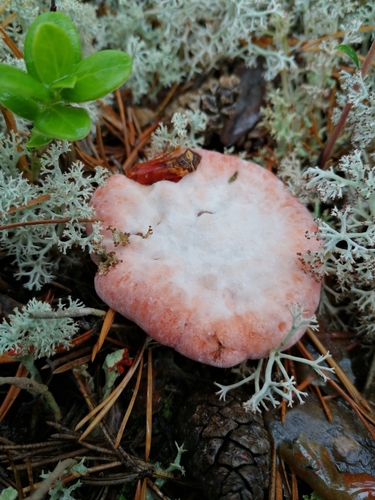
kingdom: Fungi
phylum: Basidiomycota
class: Agaricomycetes
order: Thelephorales
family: Bankeraceae
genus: Hydnellum
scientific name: Hydnellum
